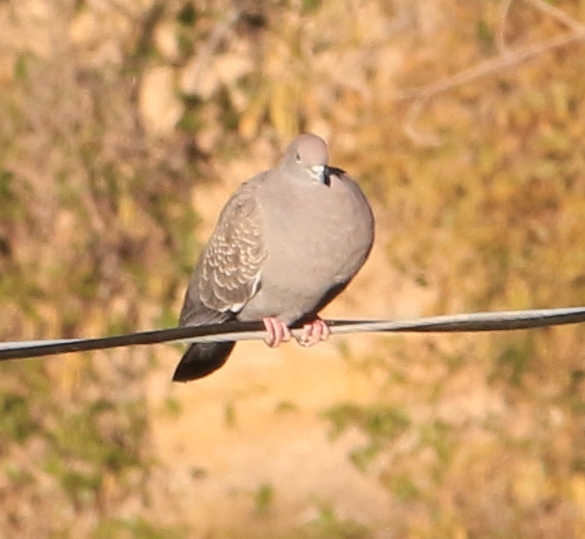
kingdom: Animalia
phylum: Chordata
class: Aves
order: Columbiformes
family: Columbidae
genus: Patagioenas
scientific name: Patagioenas maculosa
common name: Spot-winged pigeon
